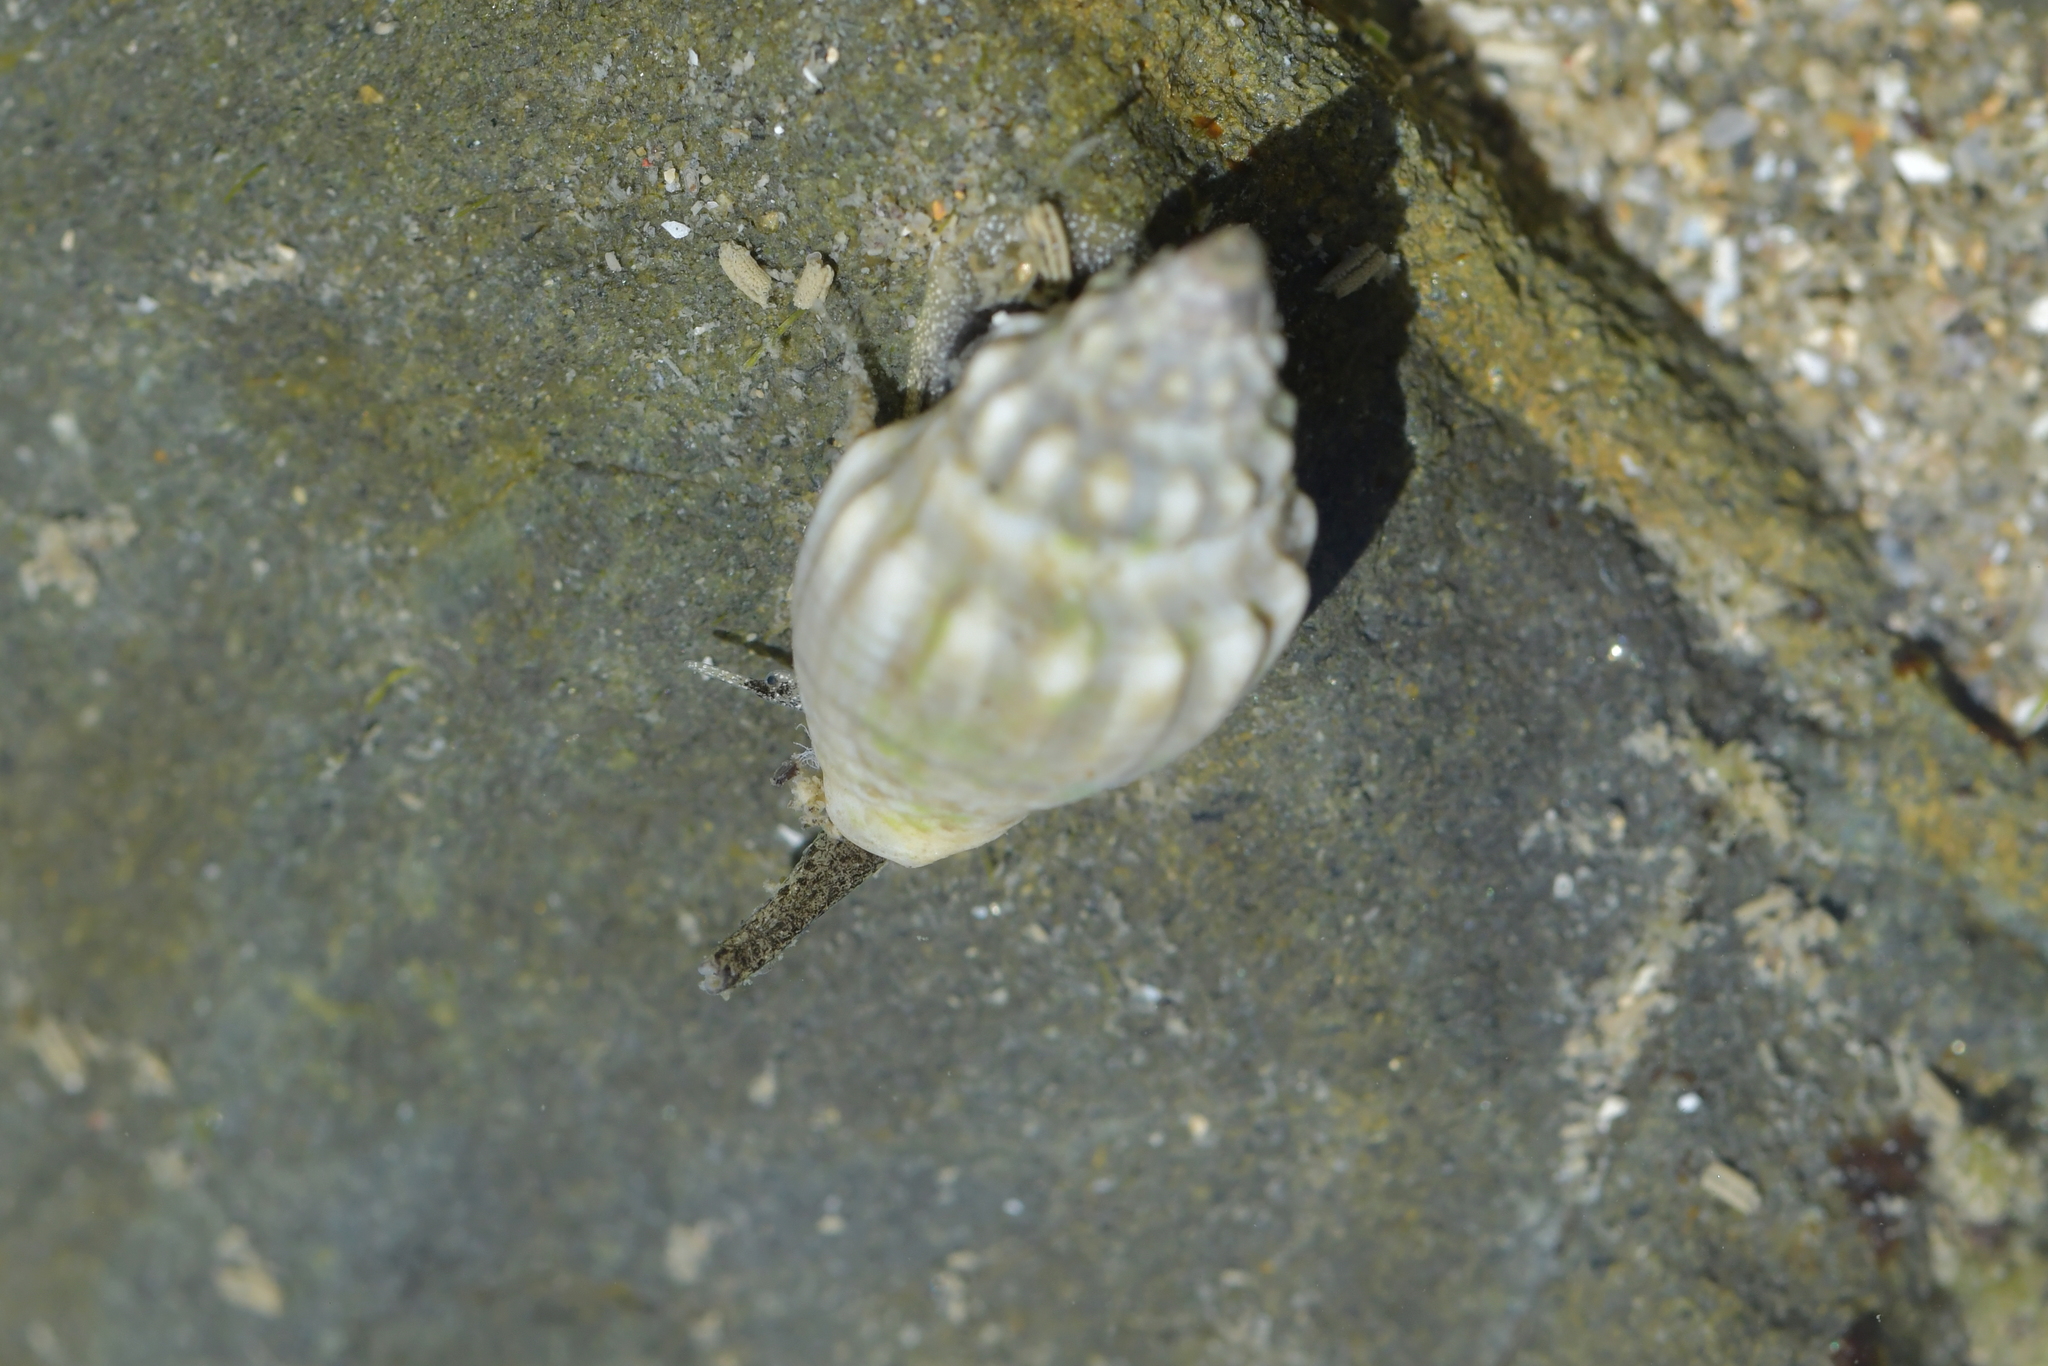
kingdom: Animalia
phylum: Mollusca
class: Gastropoda
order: Neogastropoda
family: Cominellidae
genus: Cominella
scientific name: Cominella glandiformis
